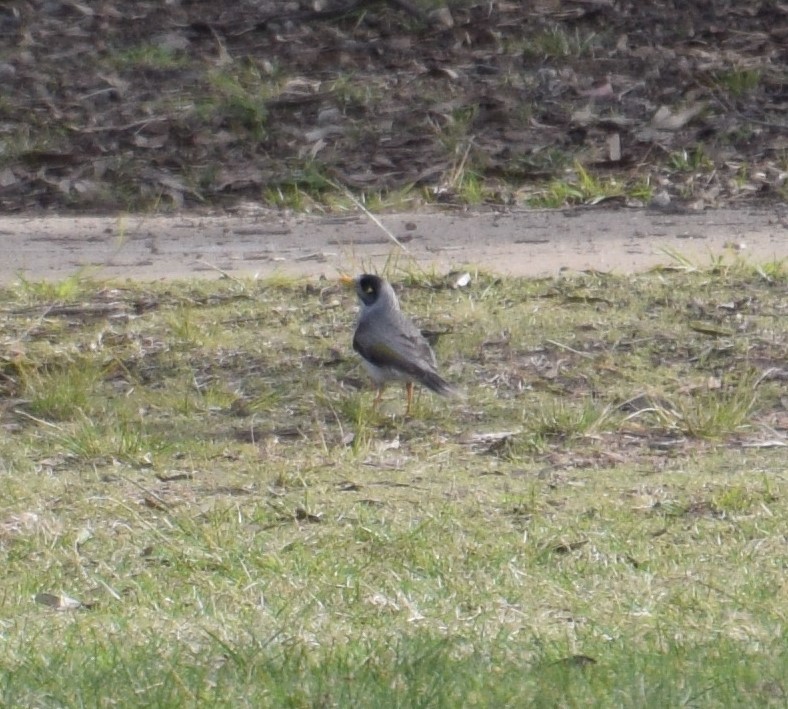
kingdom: Animalia
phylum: Chordata
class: Aves
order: Passeriformes
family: Meliphagidae
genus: Manorina
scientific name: Manorina melanocephala
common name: Noisy miner
